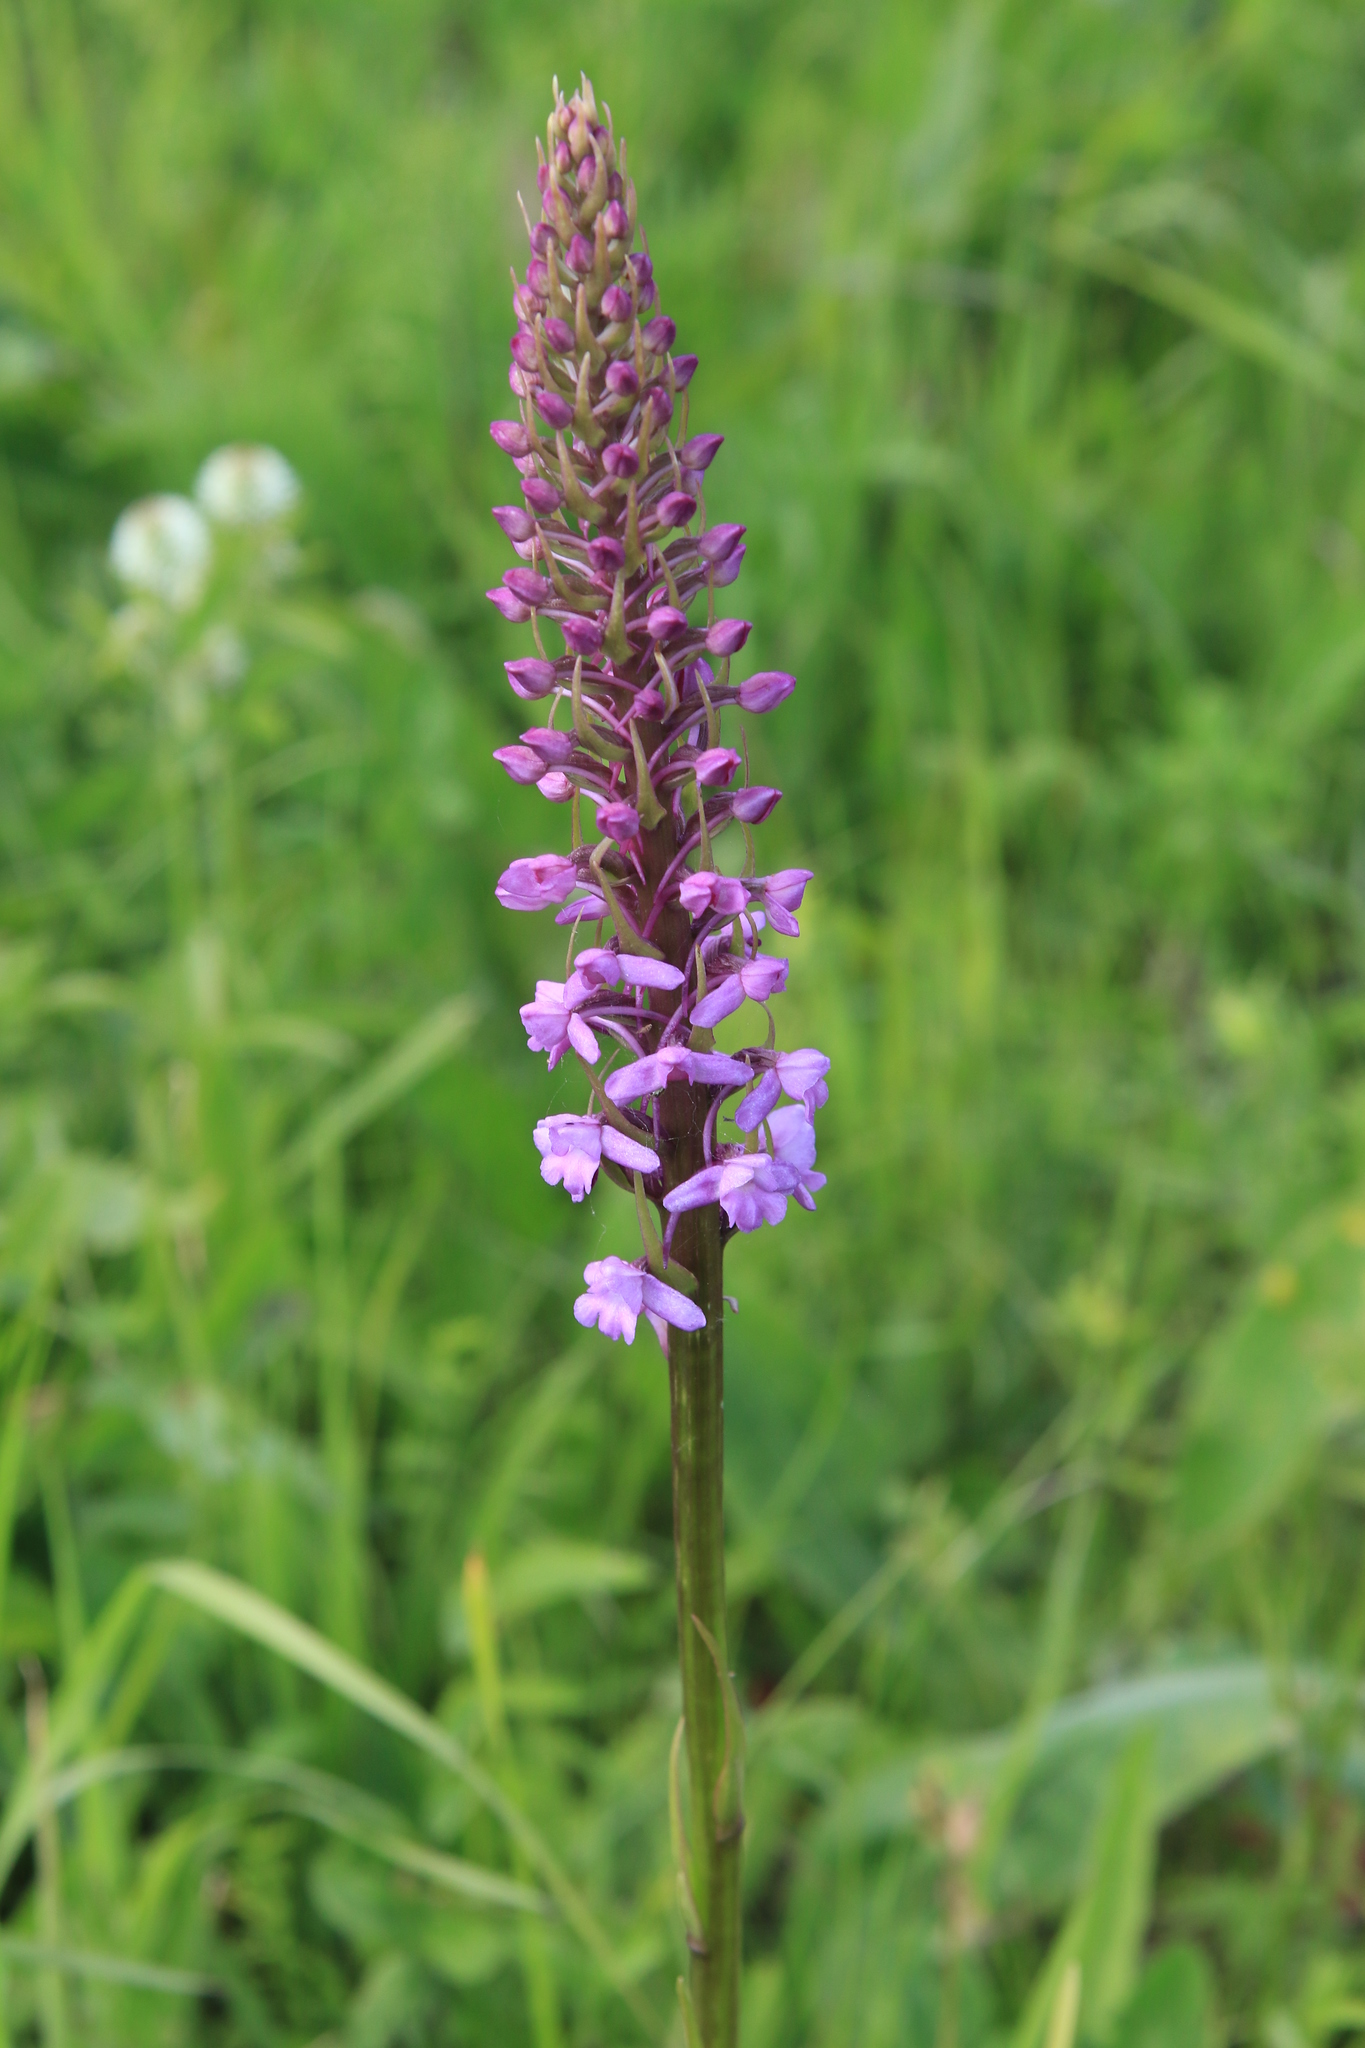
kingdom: Plantae
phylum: Tracheophyta
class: Liliopsida
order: Asparagales
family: Orchidaceae
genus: Gymnadenia
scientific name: Gymnadenia conopsea
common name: Fragrant orchid
